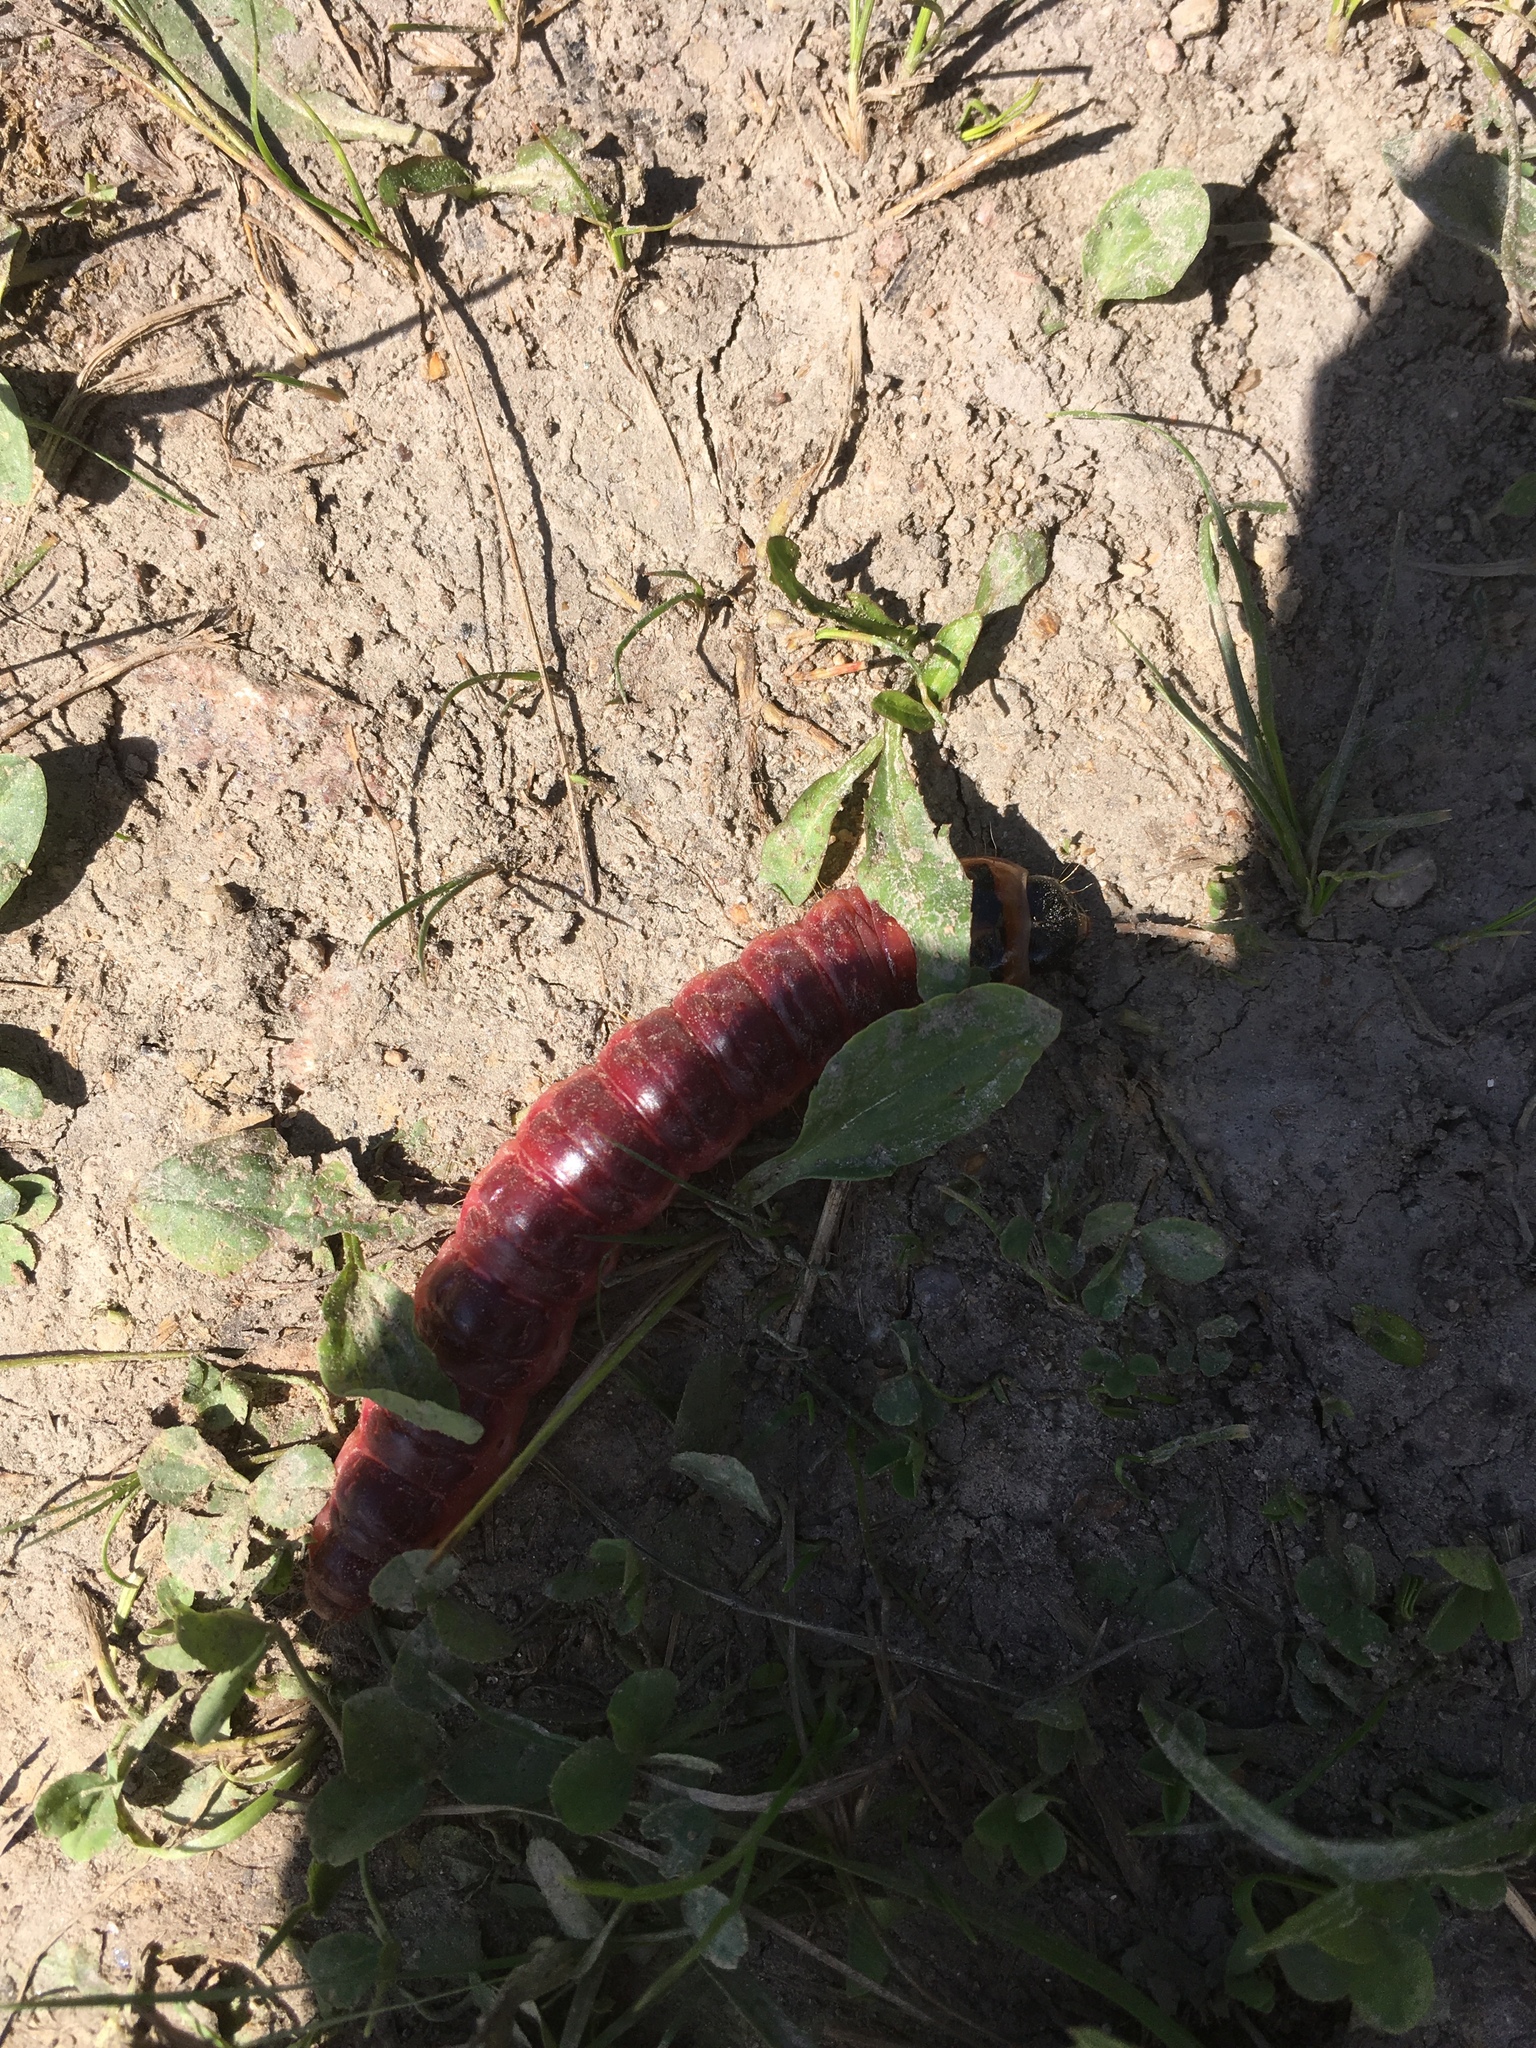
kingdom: Animalia
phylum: Arthropoda
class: Insecta
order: Lepidoptera
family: Cossidae
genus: Cossus
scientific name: Cossus cossus
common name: Goat moth
